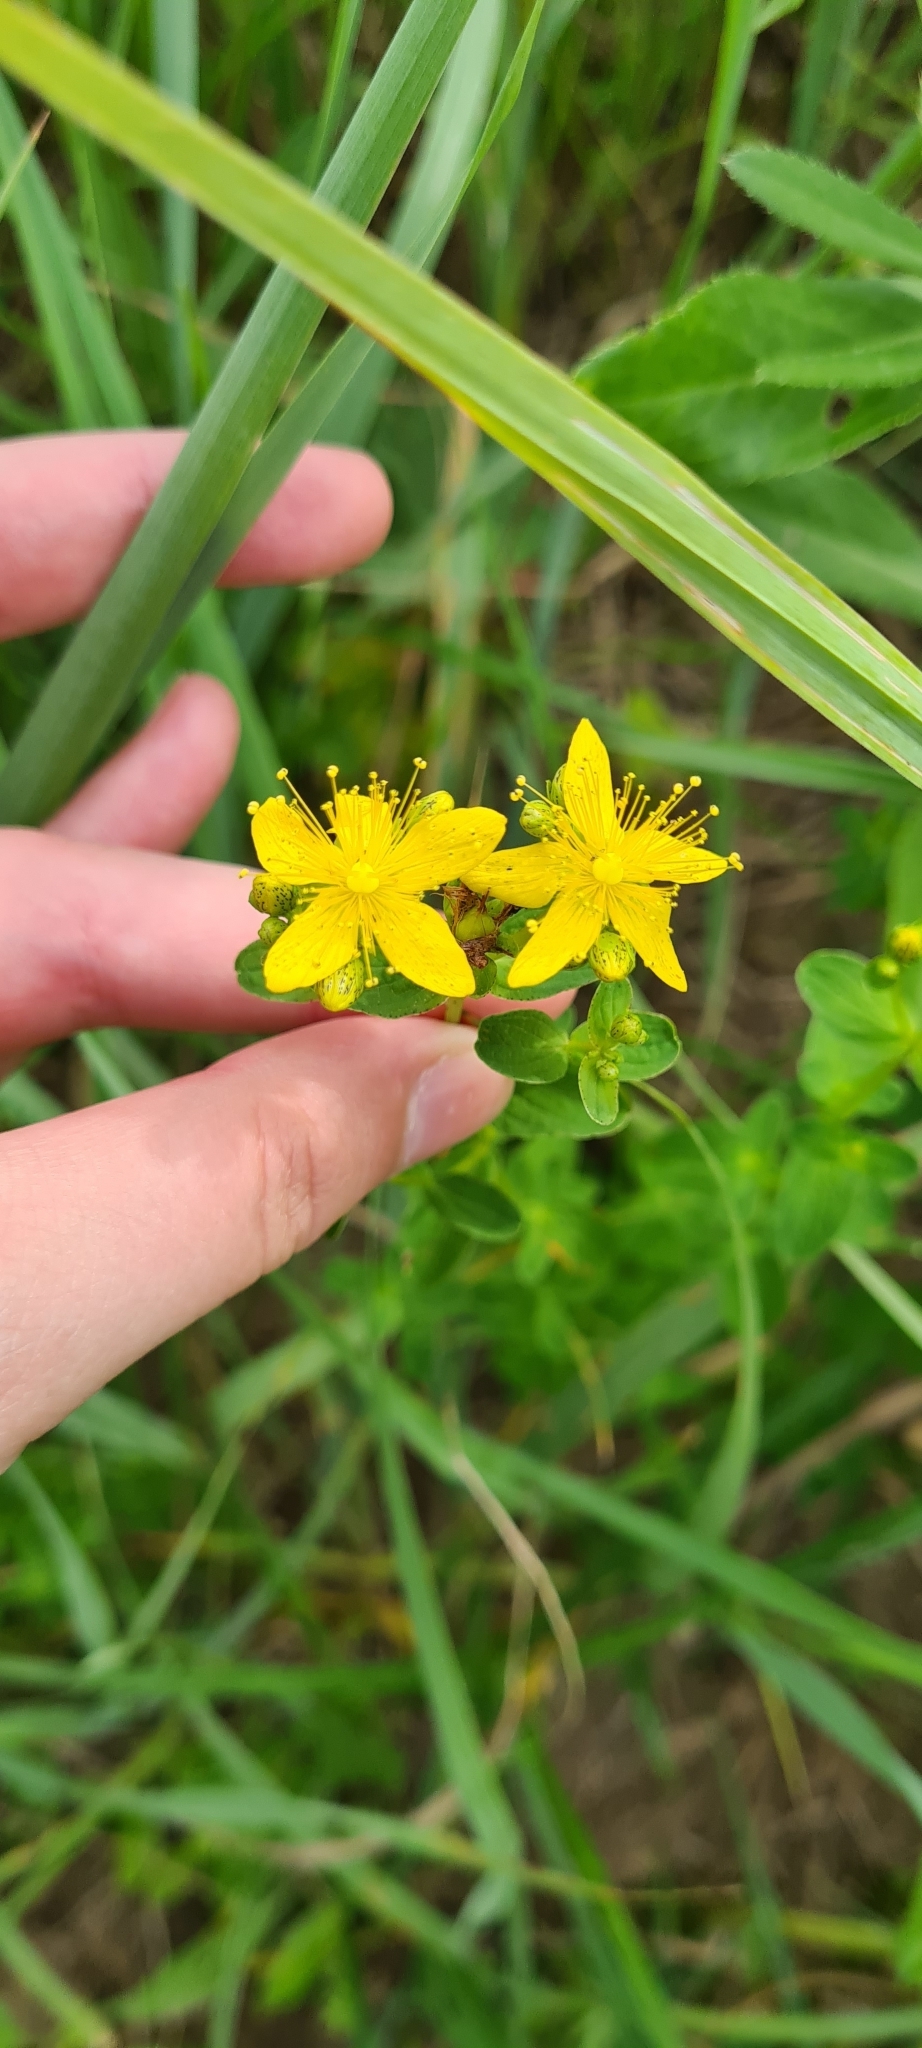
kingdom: Plantae
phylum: Tracheophyta
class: Magnoliopsida
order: Malpighiales
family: Hypericaceae
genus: Hypericum
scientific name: Hypericum maculatum
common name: Imperforate st. john's-wort
